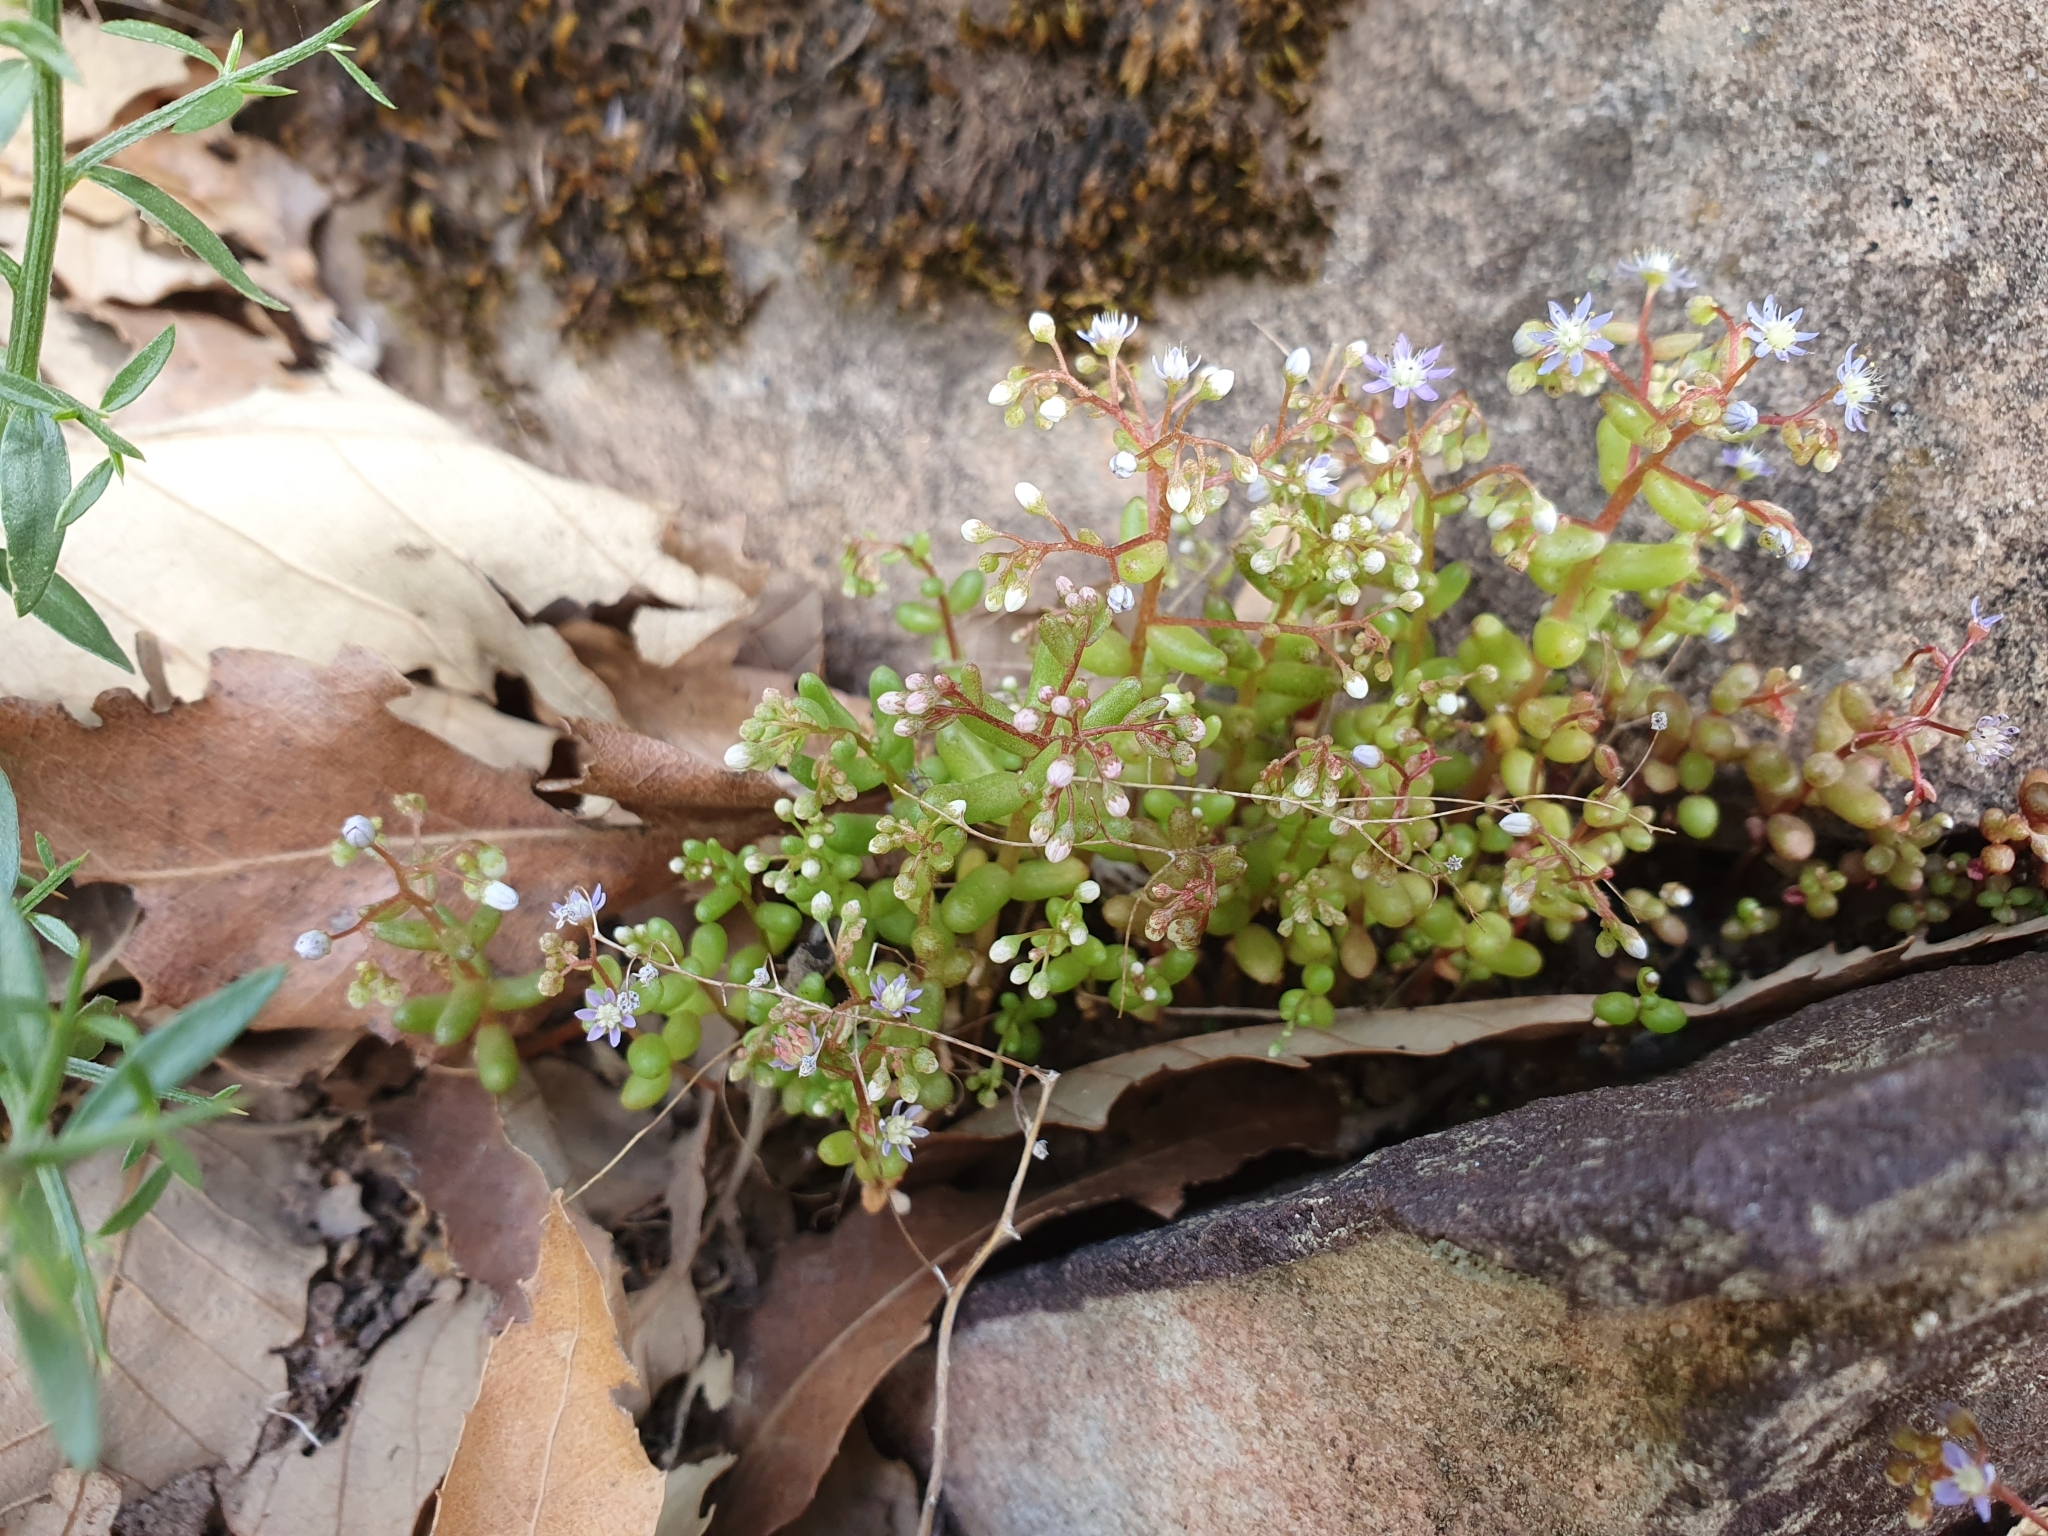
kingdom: Plantae
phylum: Tracheophyta
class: Magnoliopsida
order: Saxifragales
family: Crassulaceae
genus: Sedum
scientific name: Sedum caeruleum
